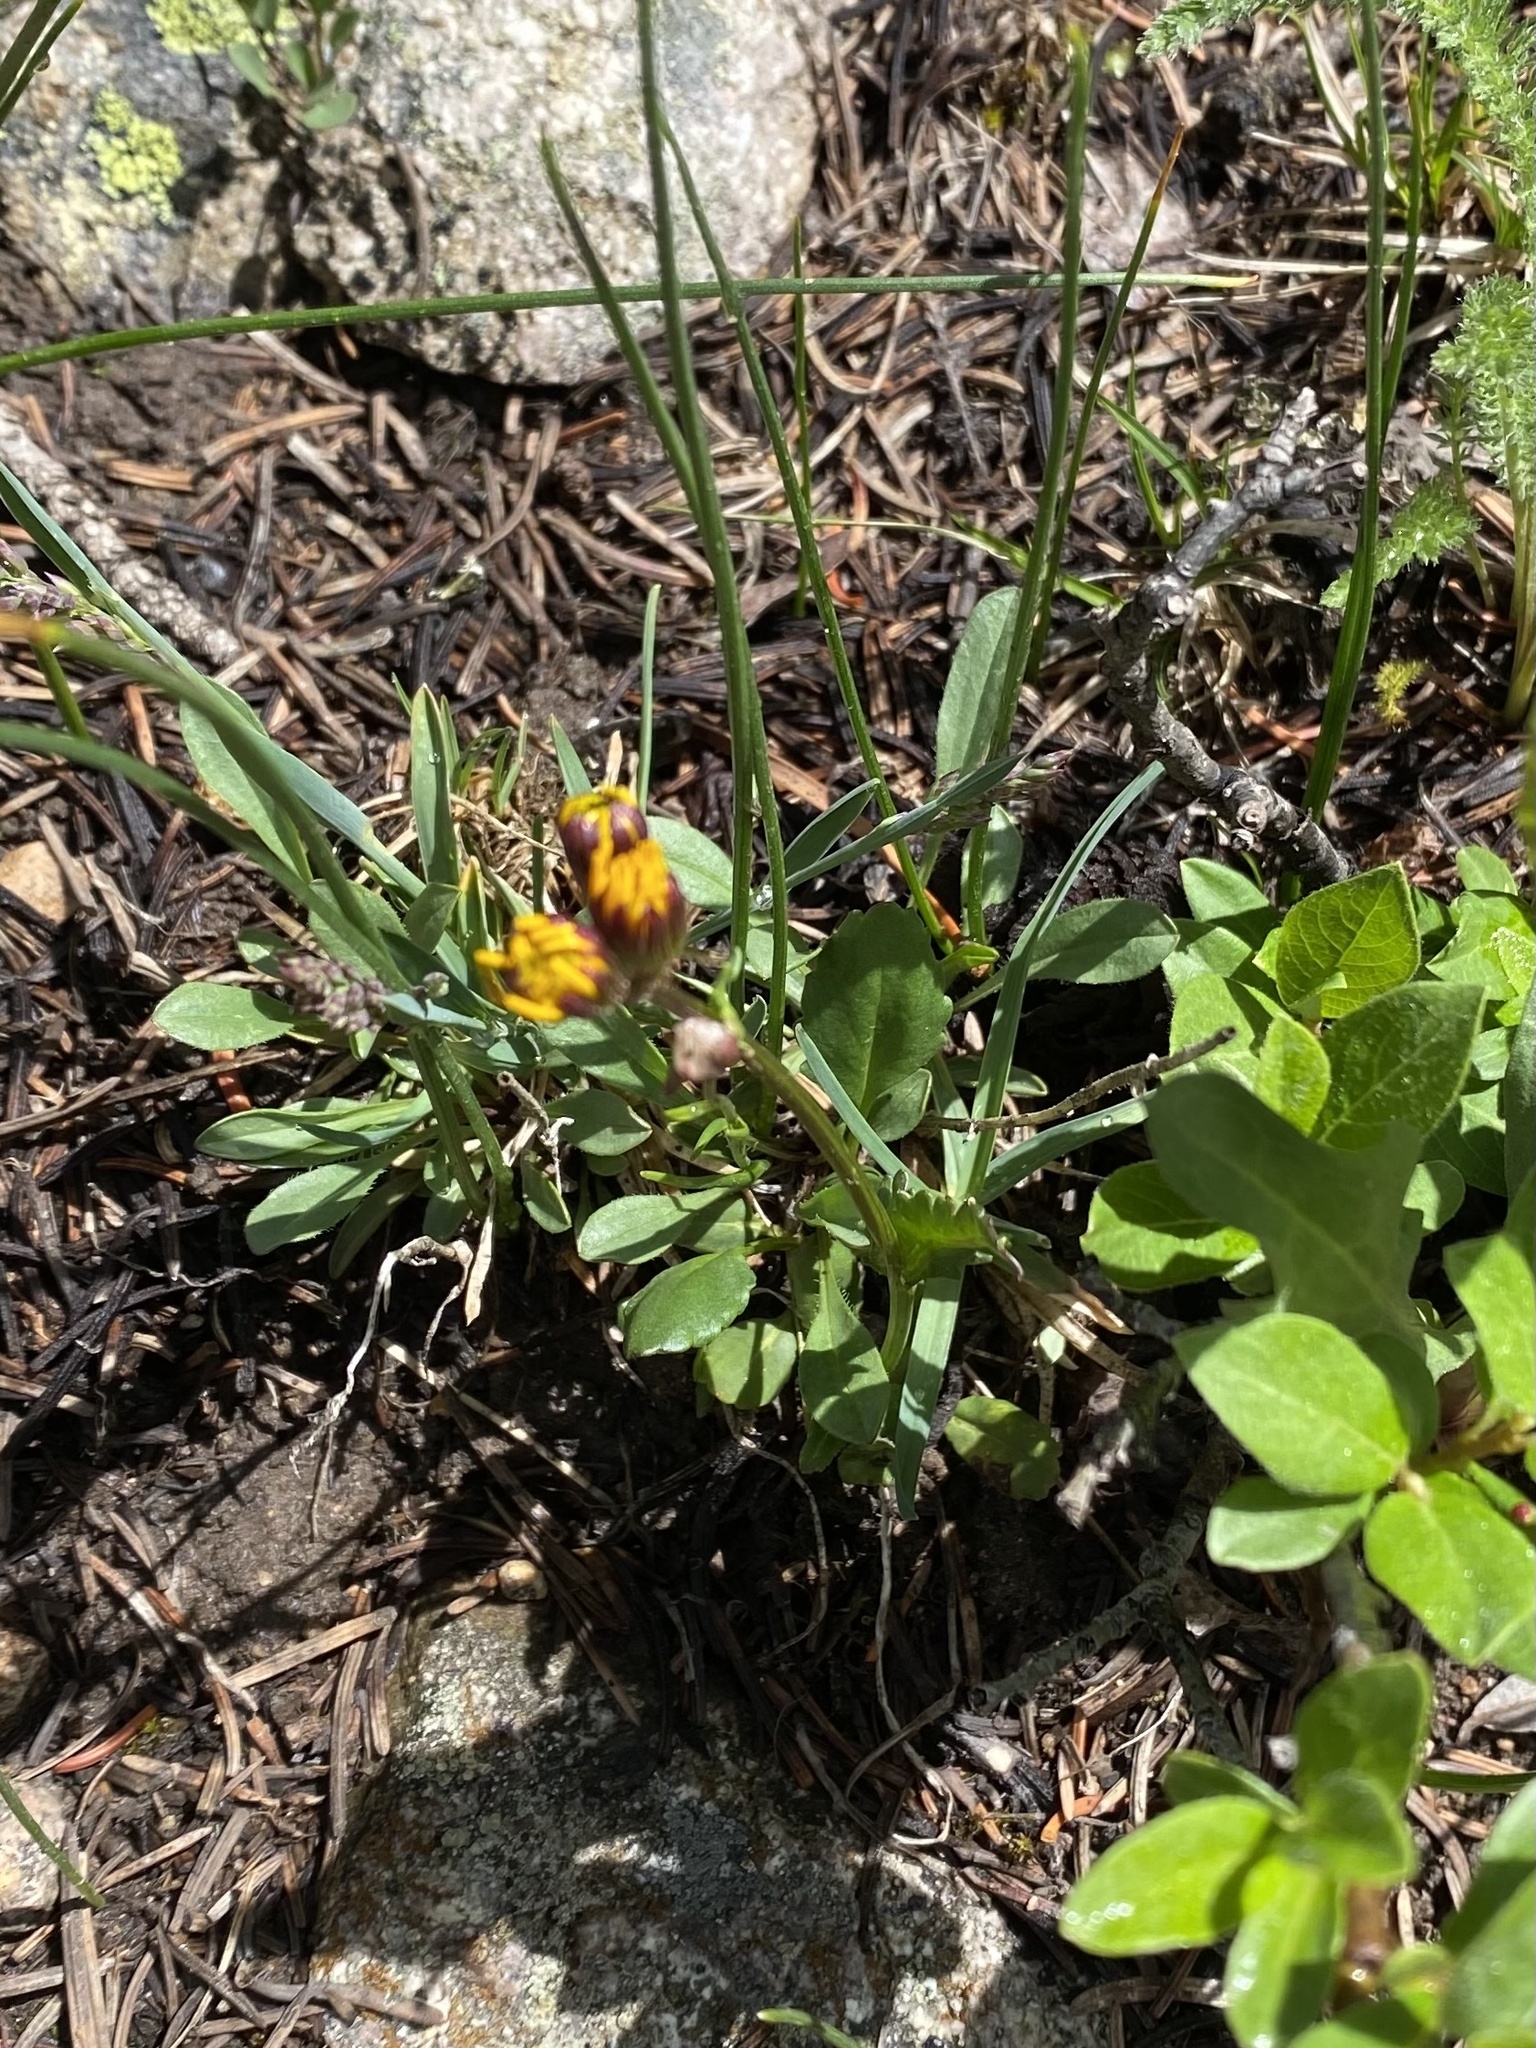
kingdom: Plantae
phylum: Tracheophyta
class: Magnoliopsida
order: Asterales
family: Asteraceae
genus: Packera
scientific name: Packera crocata
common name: Saffron ragwort
